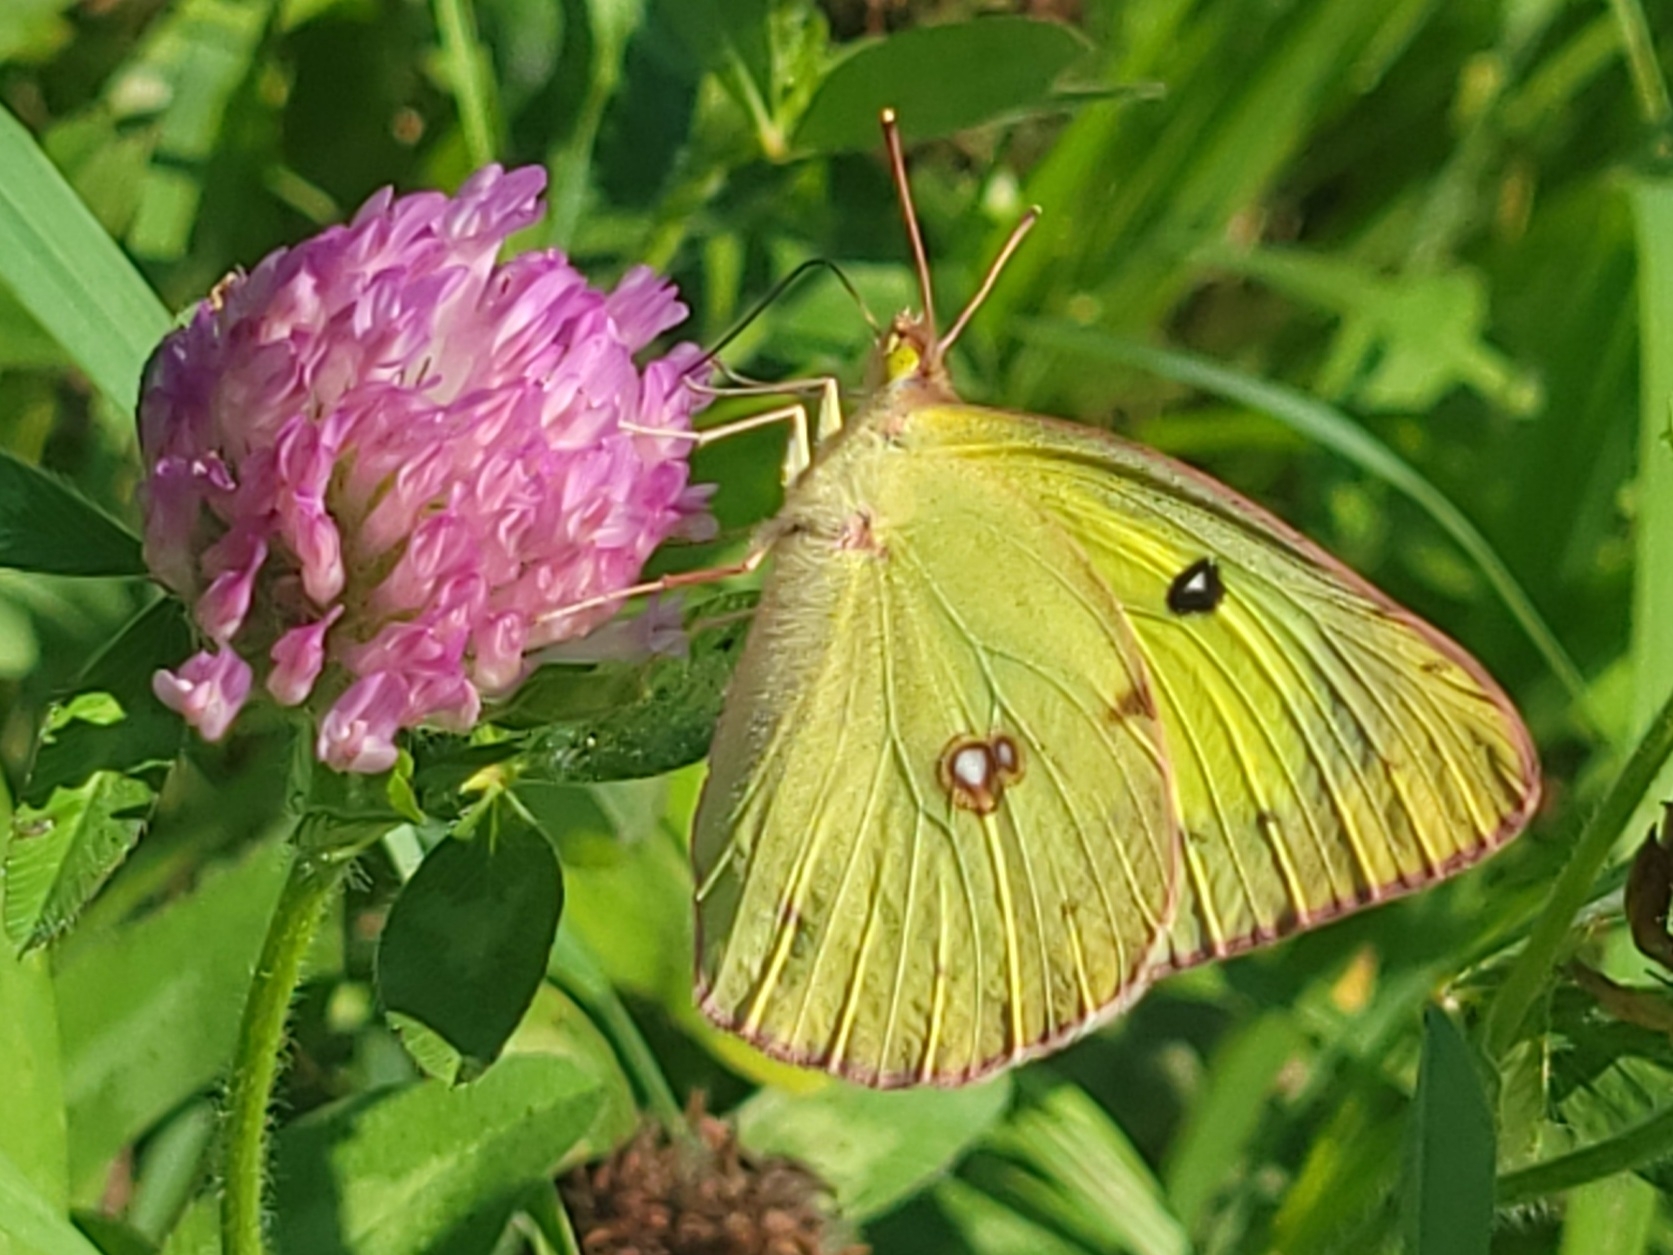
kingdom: Animalia
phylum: Arthropoda
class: Insecta
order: Lepidoptera
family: Pieridae
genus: Colias
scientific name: Colias philodice
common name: Clouded sulphur
